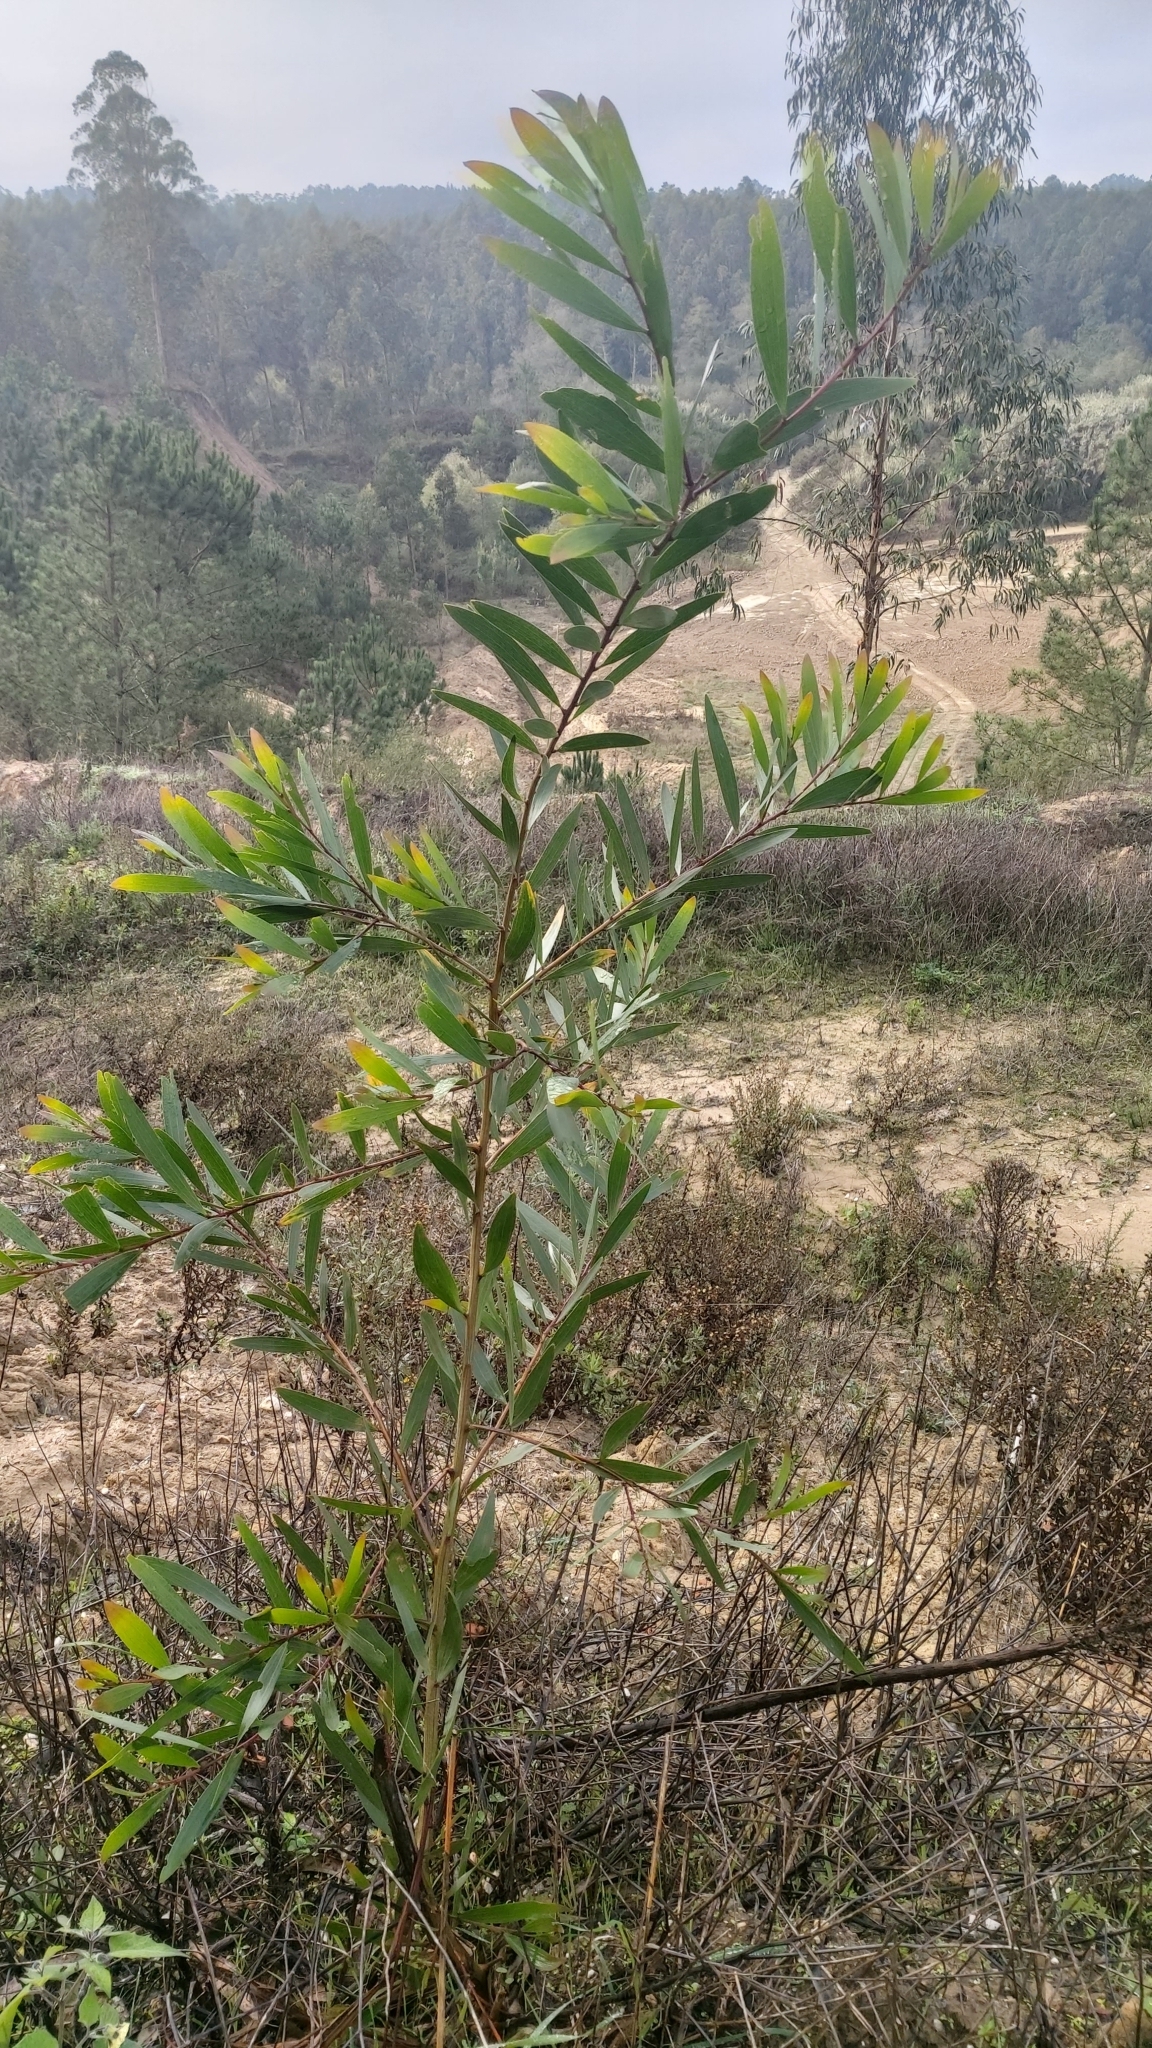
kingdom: Plantae
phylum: Tracheophyta
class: Magnoliopsida
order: Fabales
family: Fabaceae
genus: Acacia
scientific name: Acacia longifolia
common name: Sydney golden wattle
